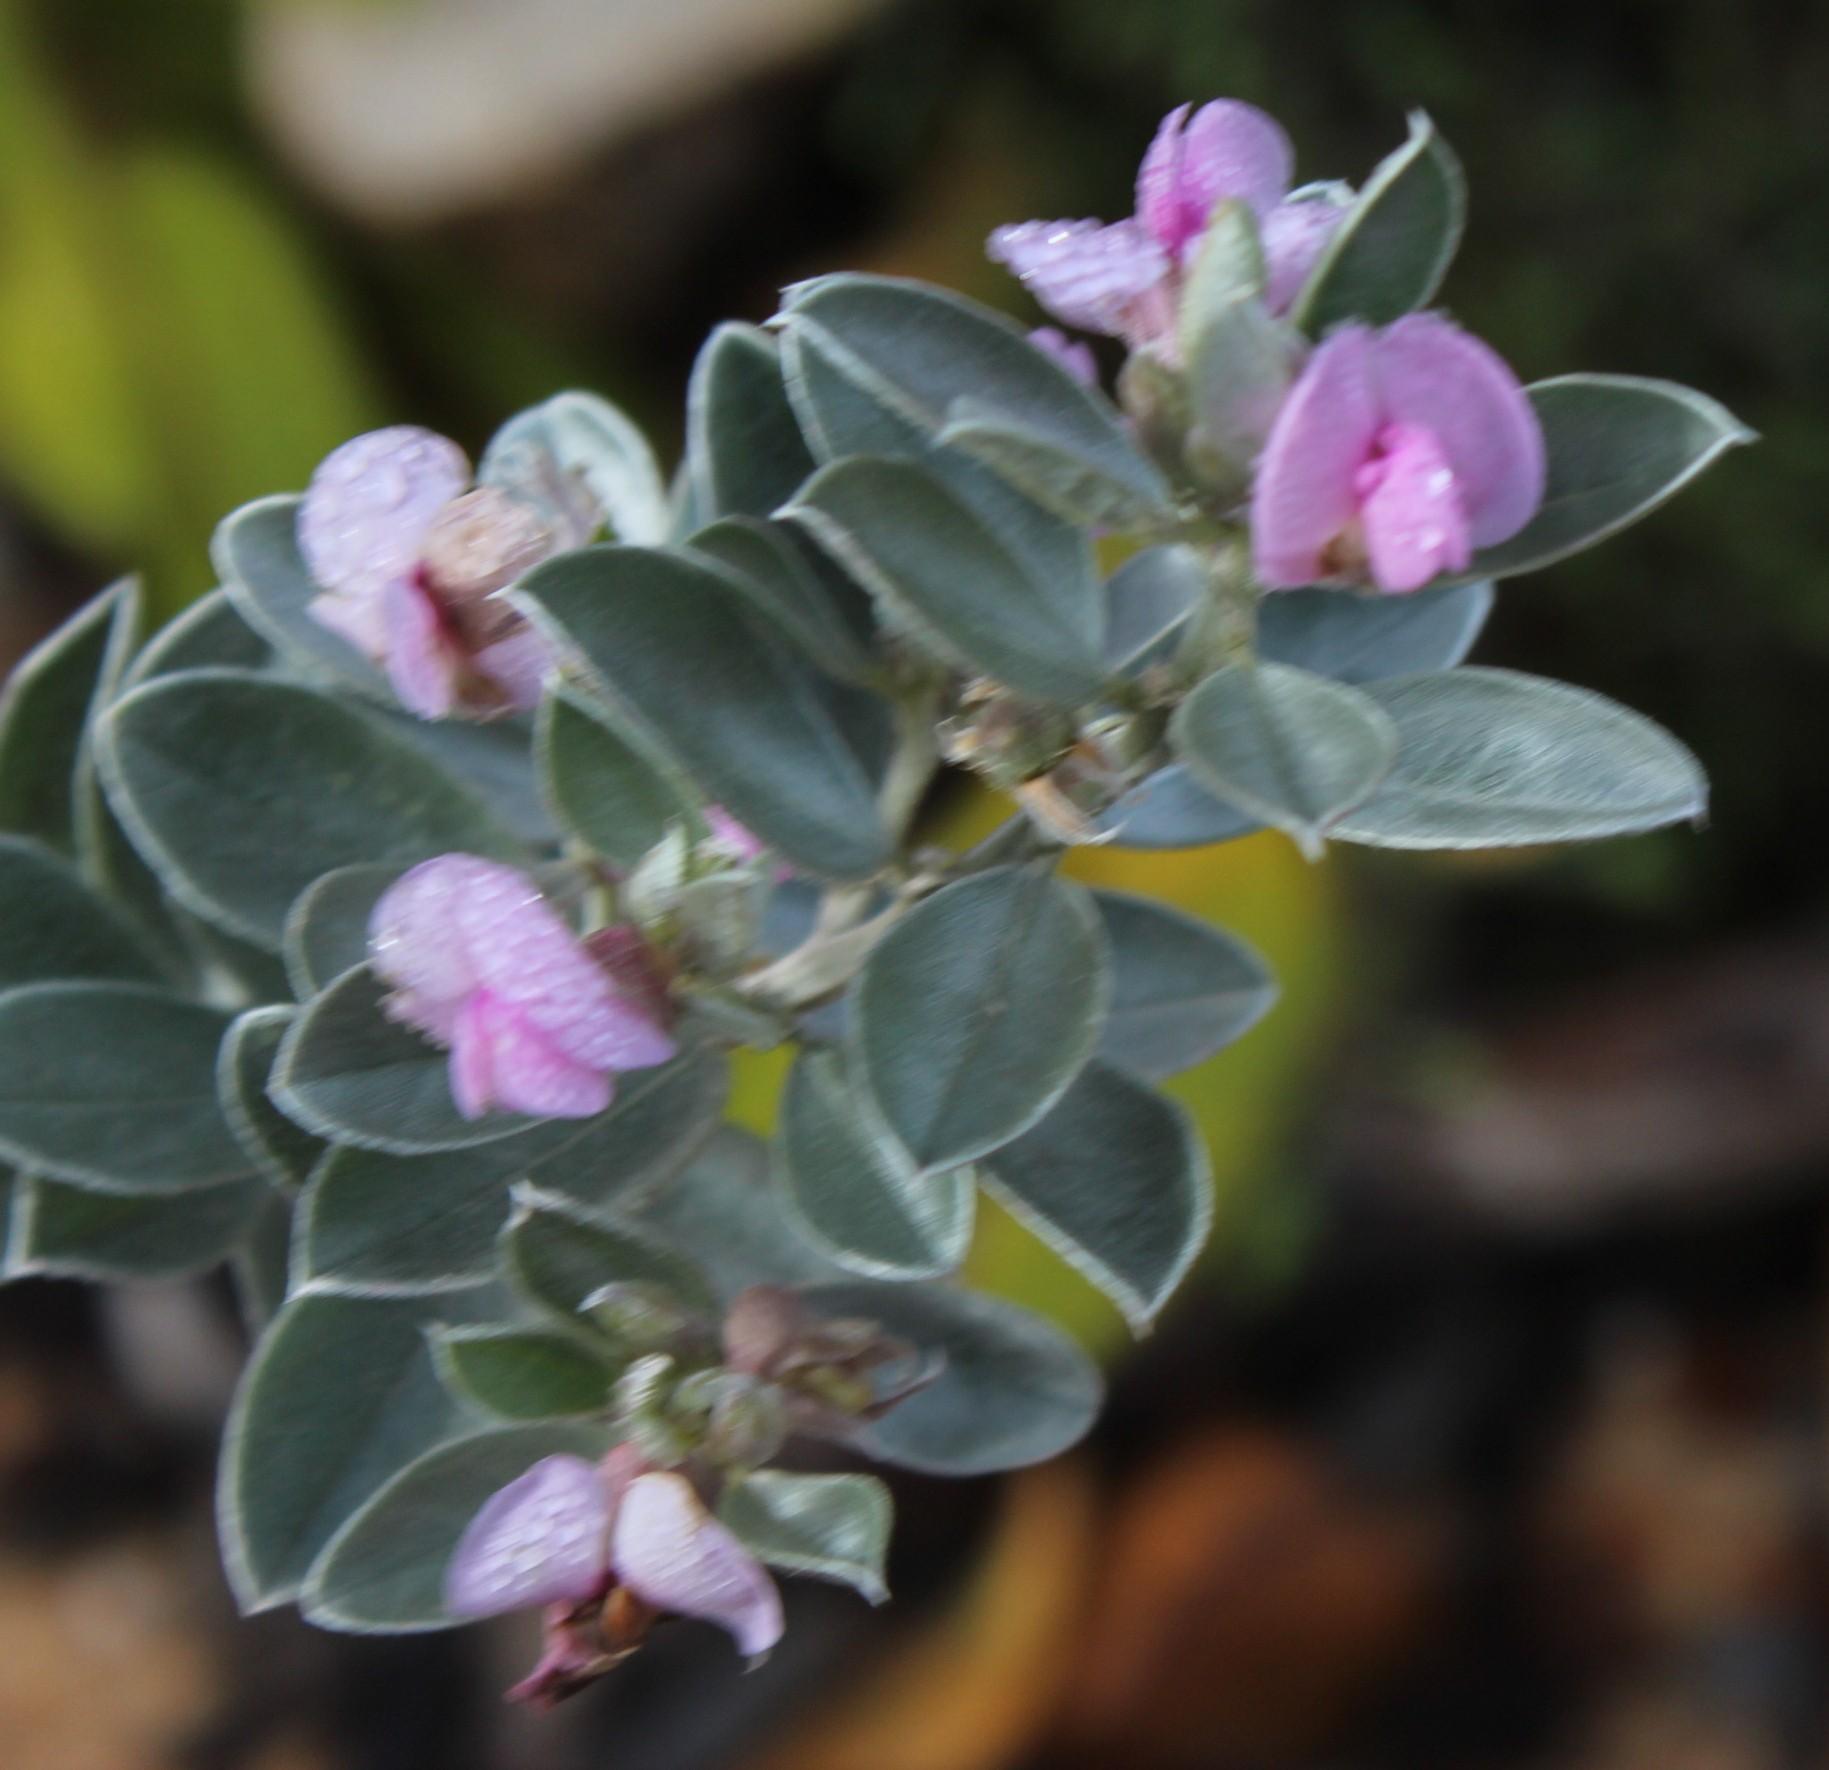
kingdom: Plantae
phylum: Tracheophyta
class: Magnoliopsida
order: Fabales
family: Fabaceae
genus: Podalyria
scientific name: Podalyria sericea
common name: Silver podalyria
